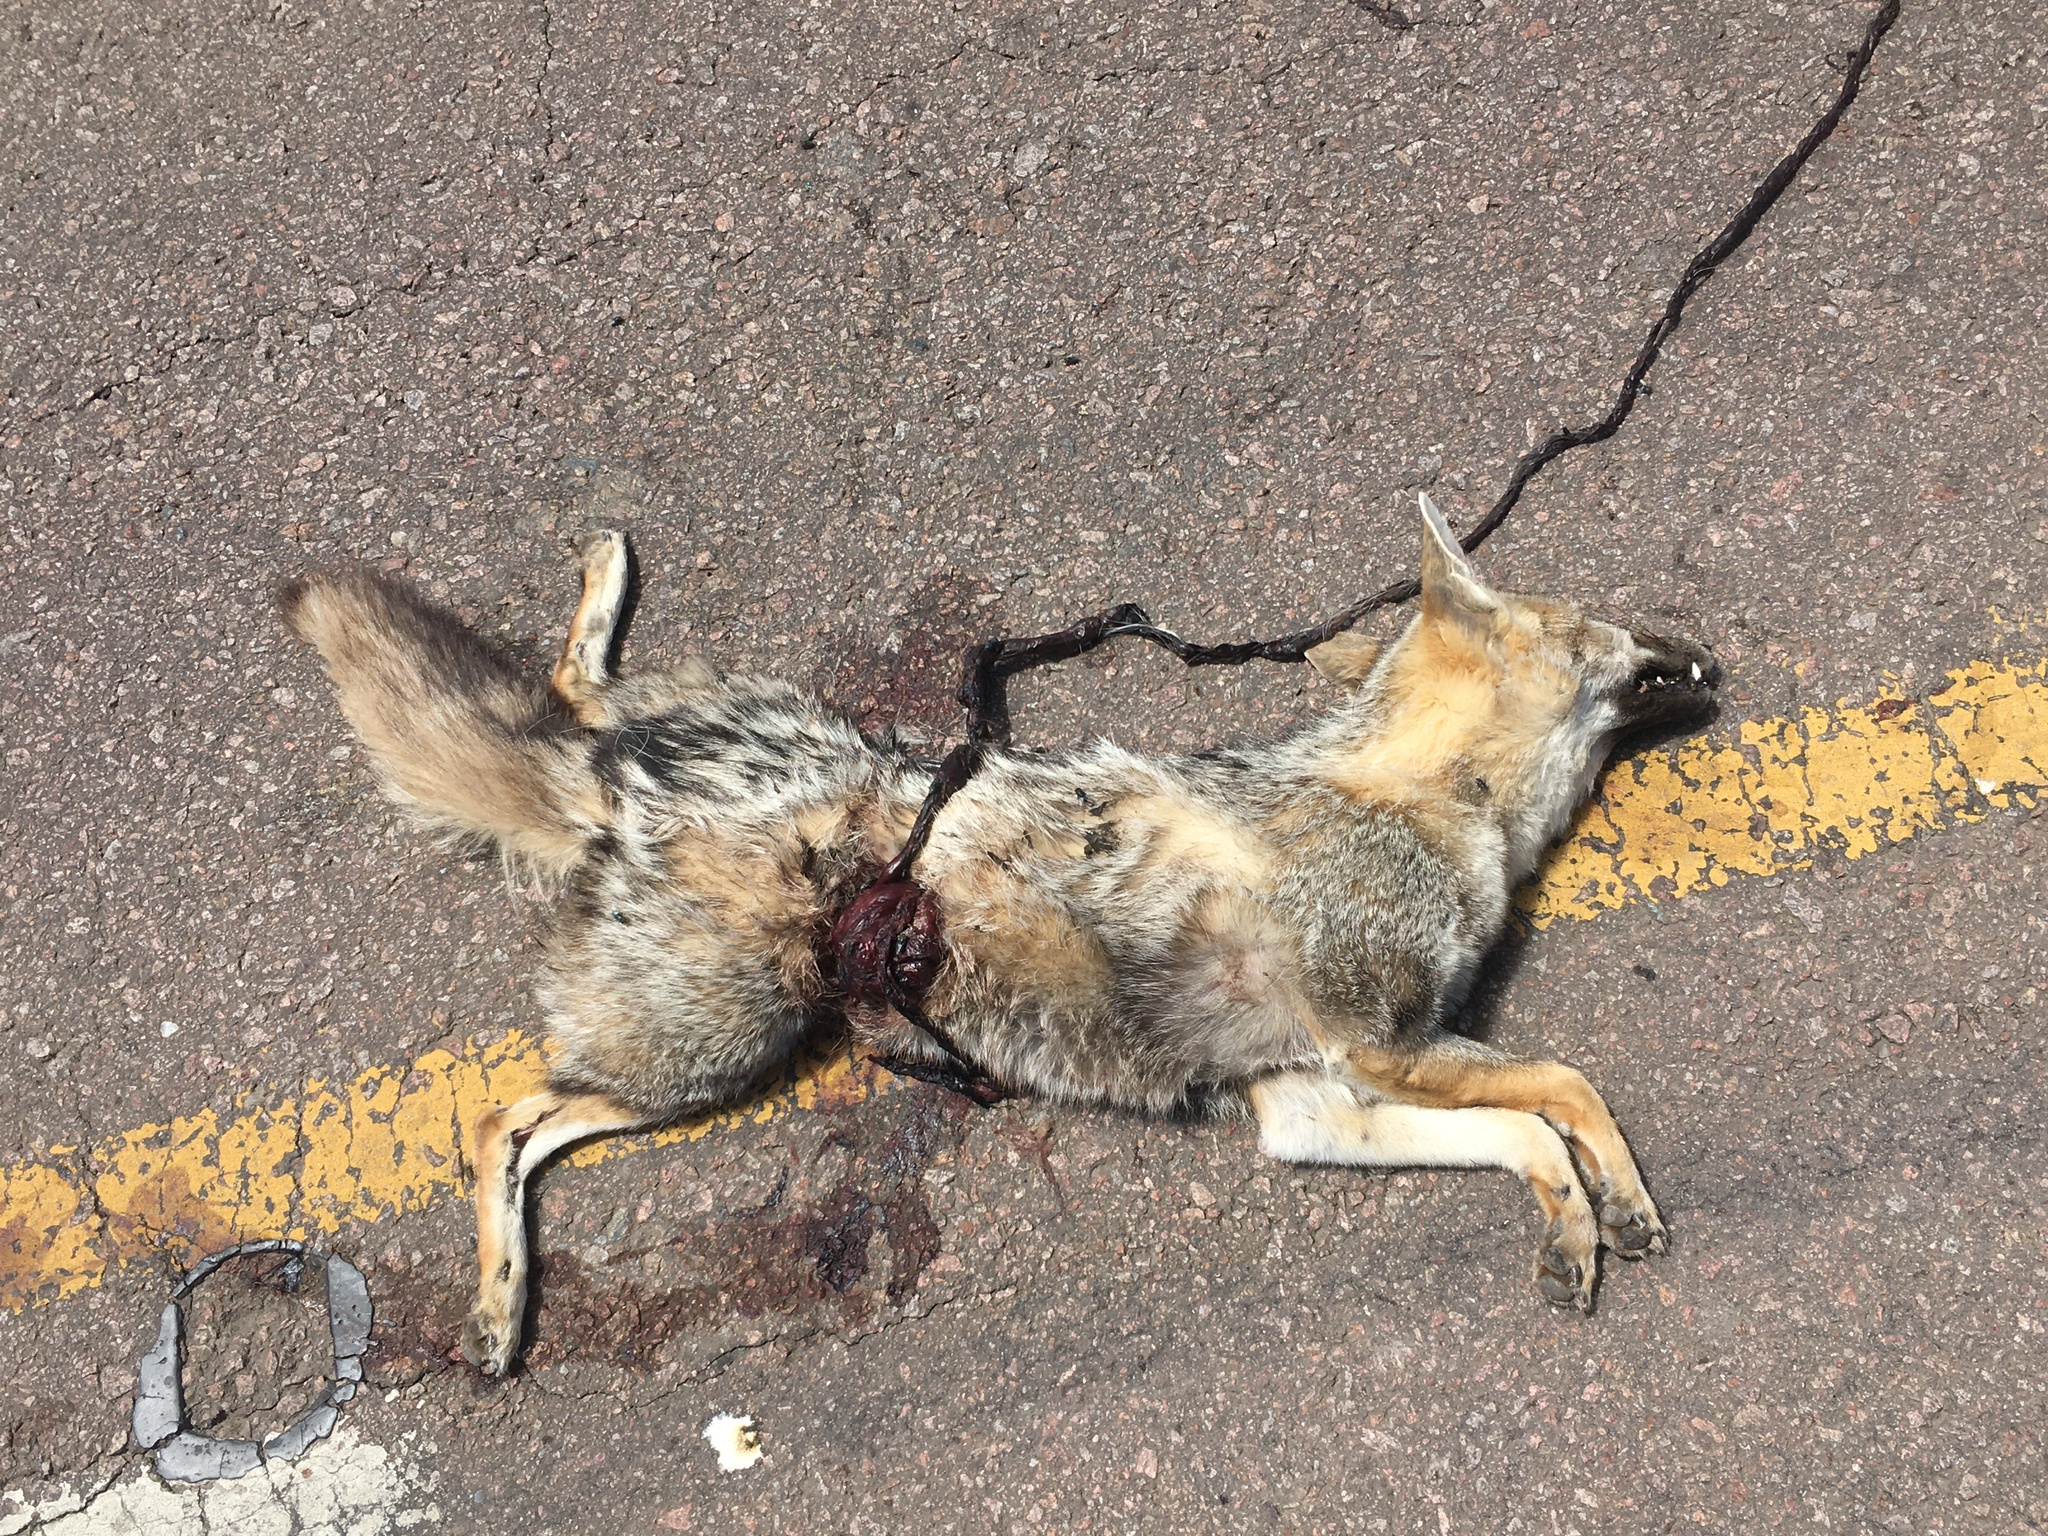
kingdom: Animalia
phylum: Chordata
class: Mammalia
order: Carnivora
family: Canidae
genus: Lycalopex
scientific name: Lycalopex gymnocercus
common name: Pampas fox
